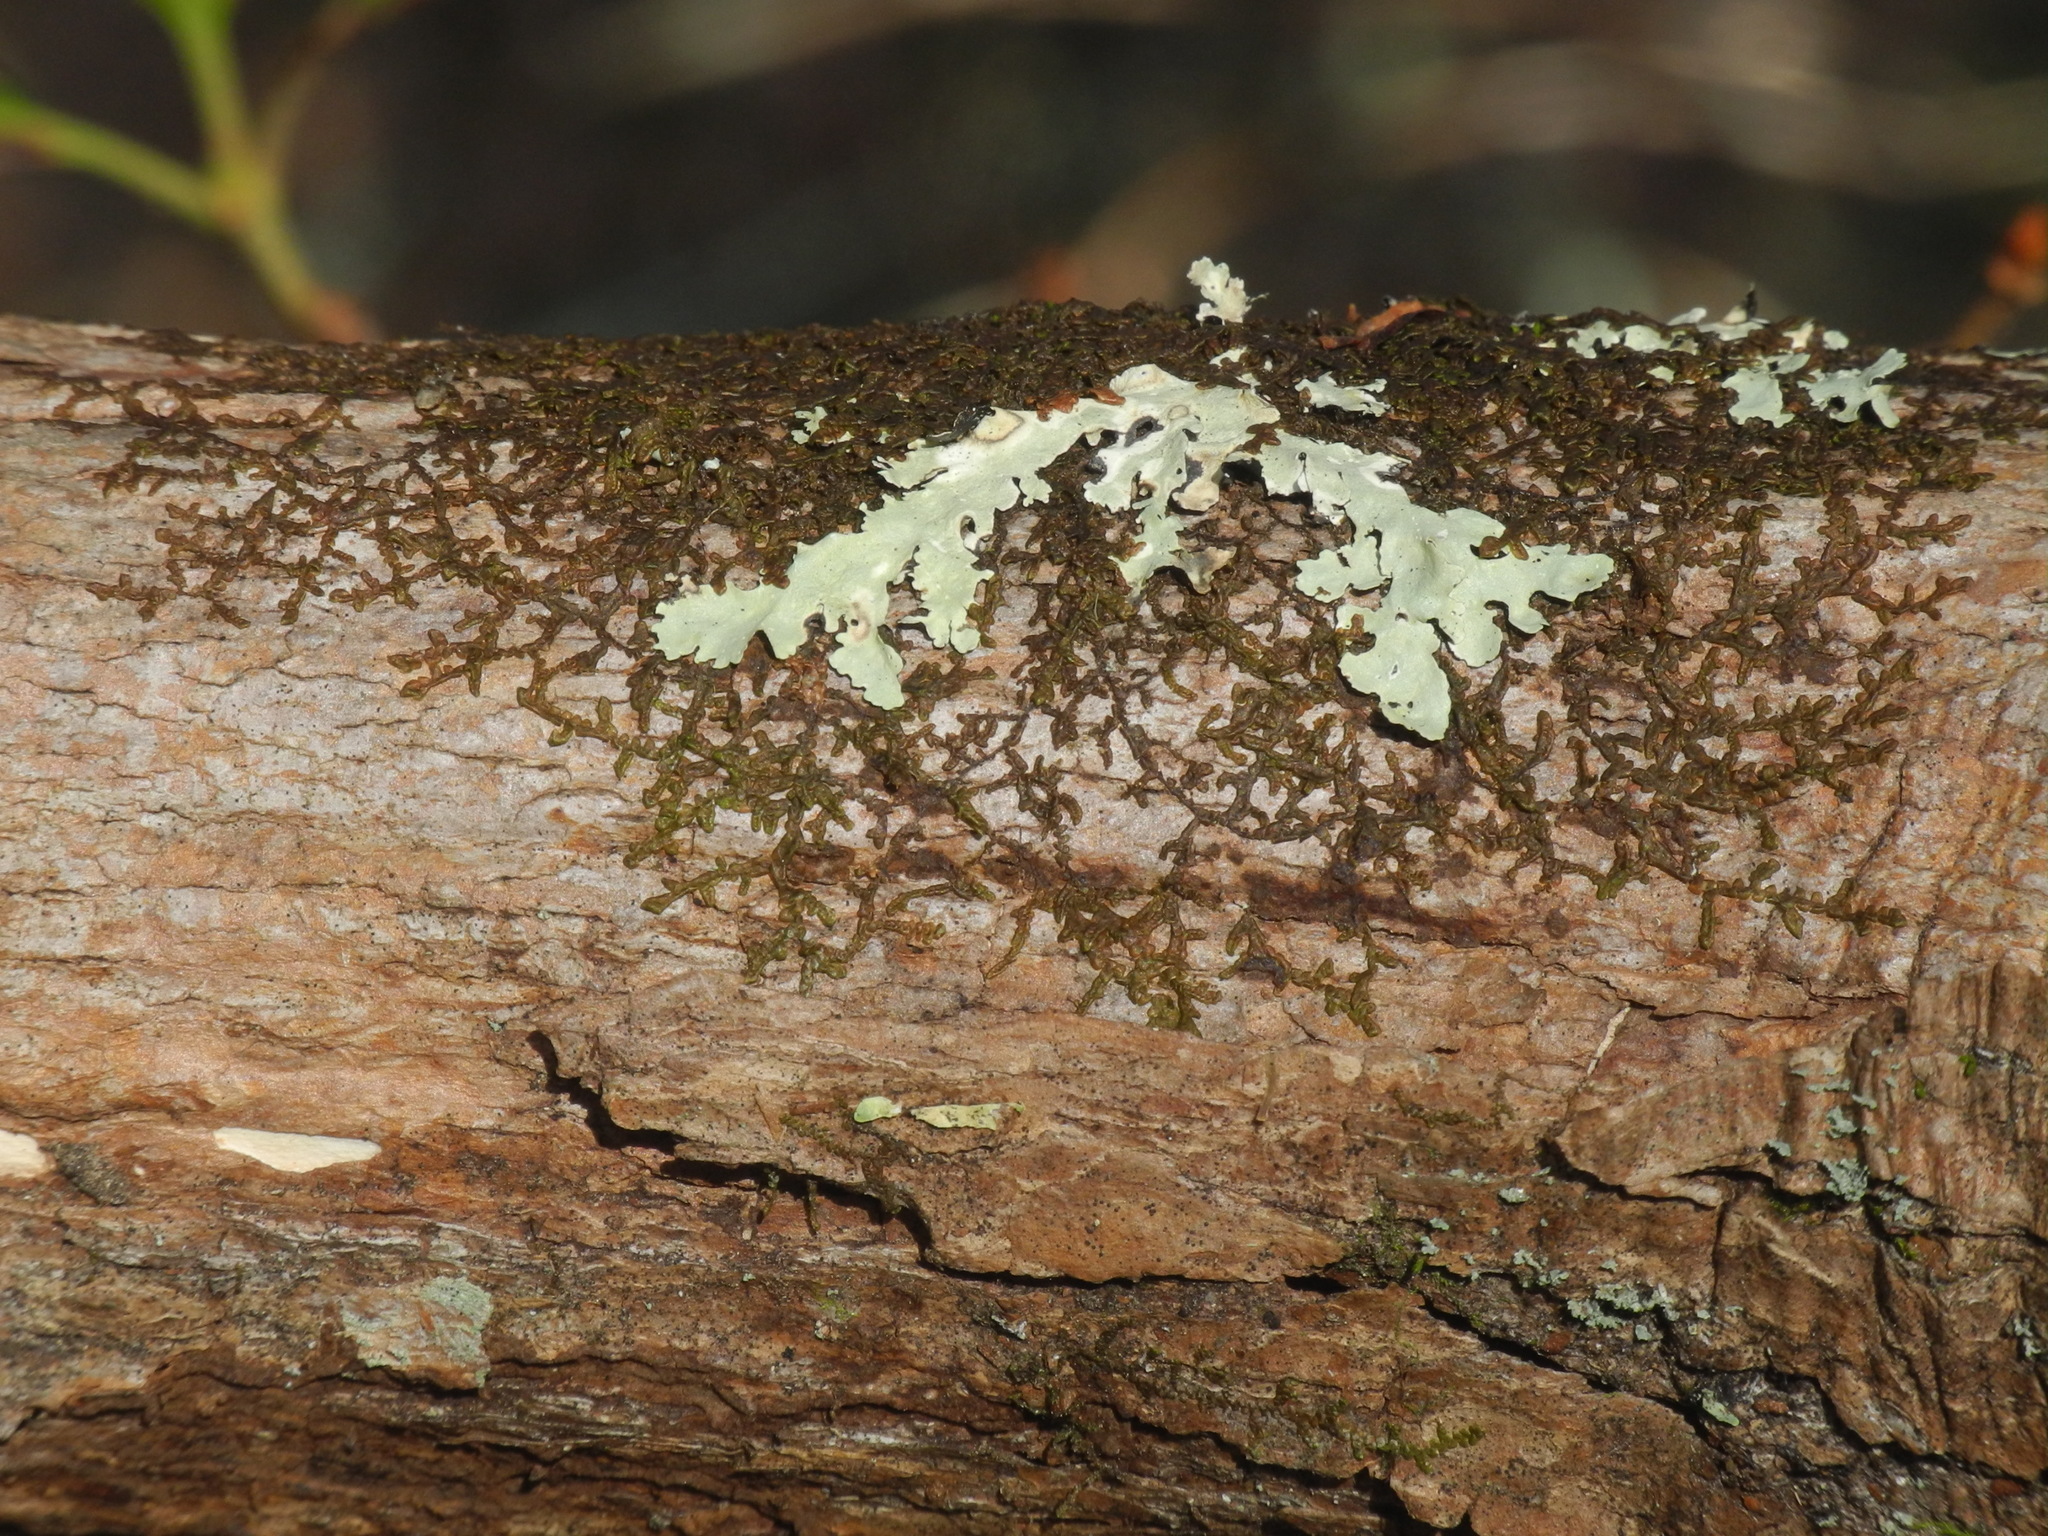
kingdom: Plantae
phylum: Marchantiophyta
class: Jungermanniopsida
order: Porellales
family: Frullaniaceae
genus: Frullania
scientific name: Frullania eboracensis
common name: New york scalewort
